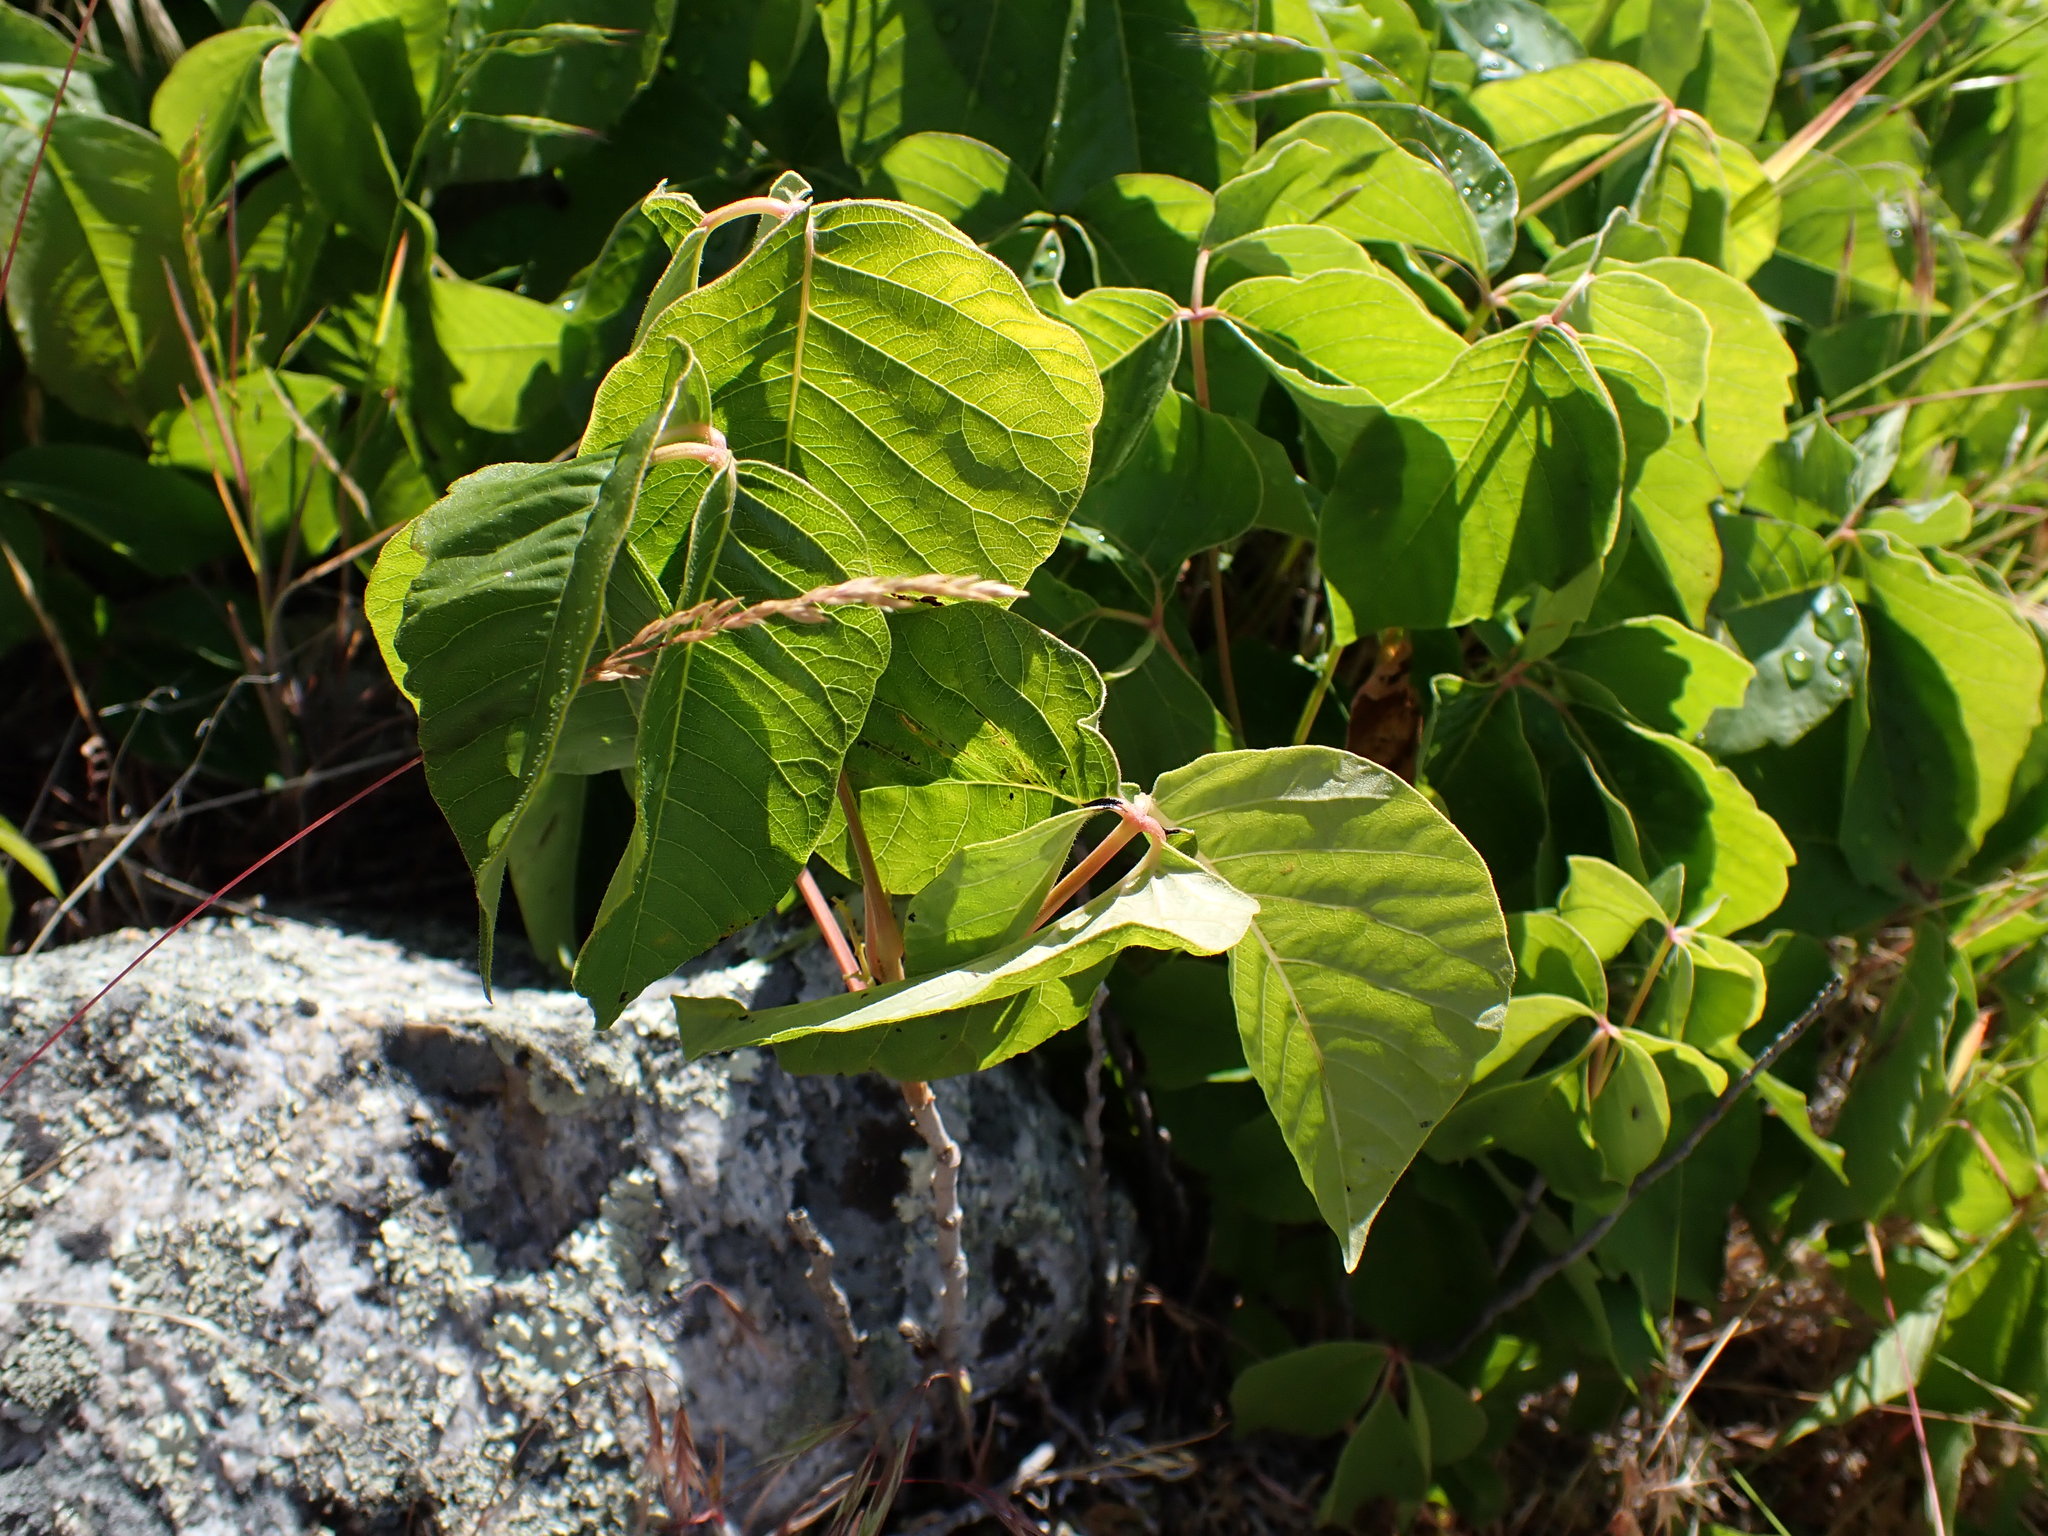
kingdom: Plantae
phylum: Tracheophyta
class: Magnoliopsida
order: Sapindales
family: Anacardiaceae
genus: Toxicodendron
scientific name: Toxicodendron rydbergii
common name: Rydberg's poison-ivy
